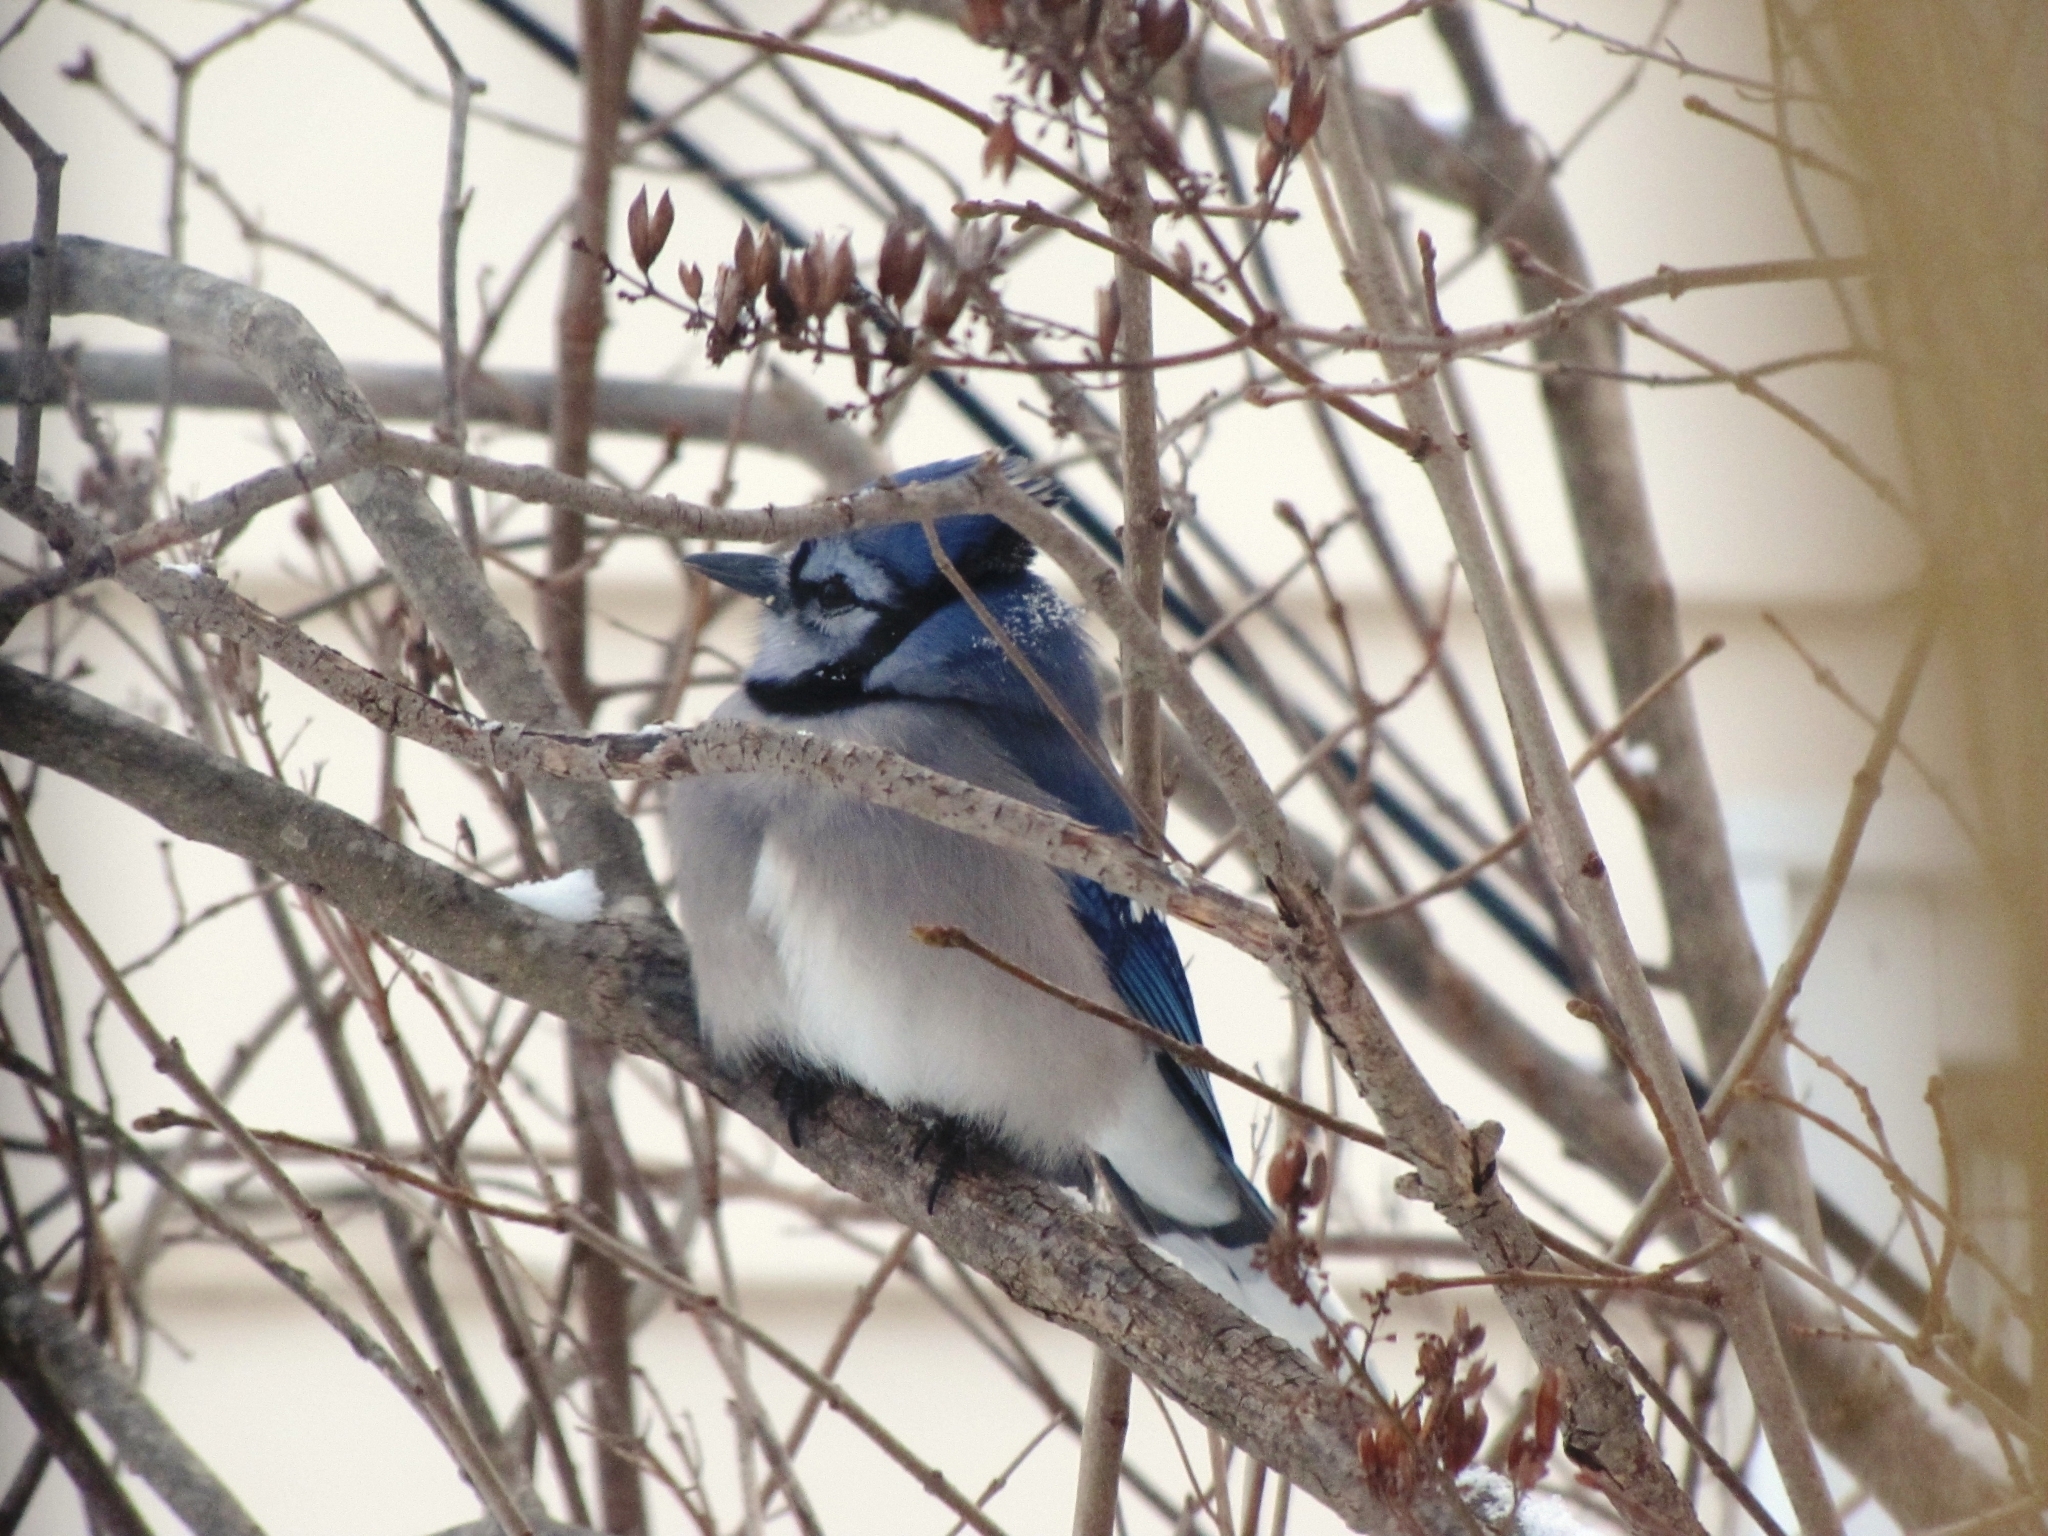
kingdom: Animalia
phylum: Chordata
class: Aves
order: Passeriformes
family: Corvidae
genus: Cyanocitta
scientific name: Cyanocitta cristata
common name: Blue jay
